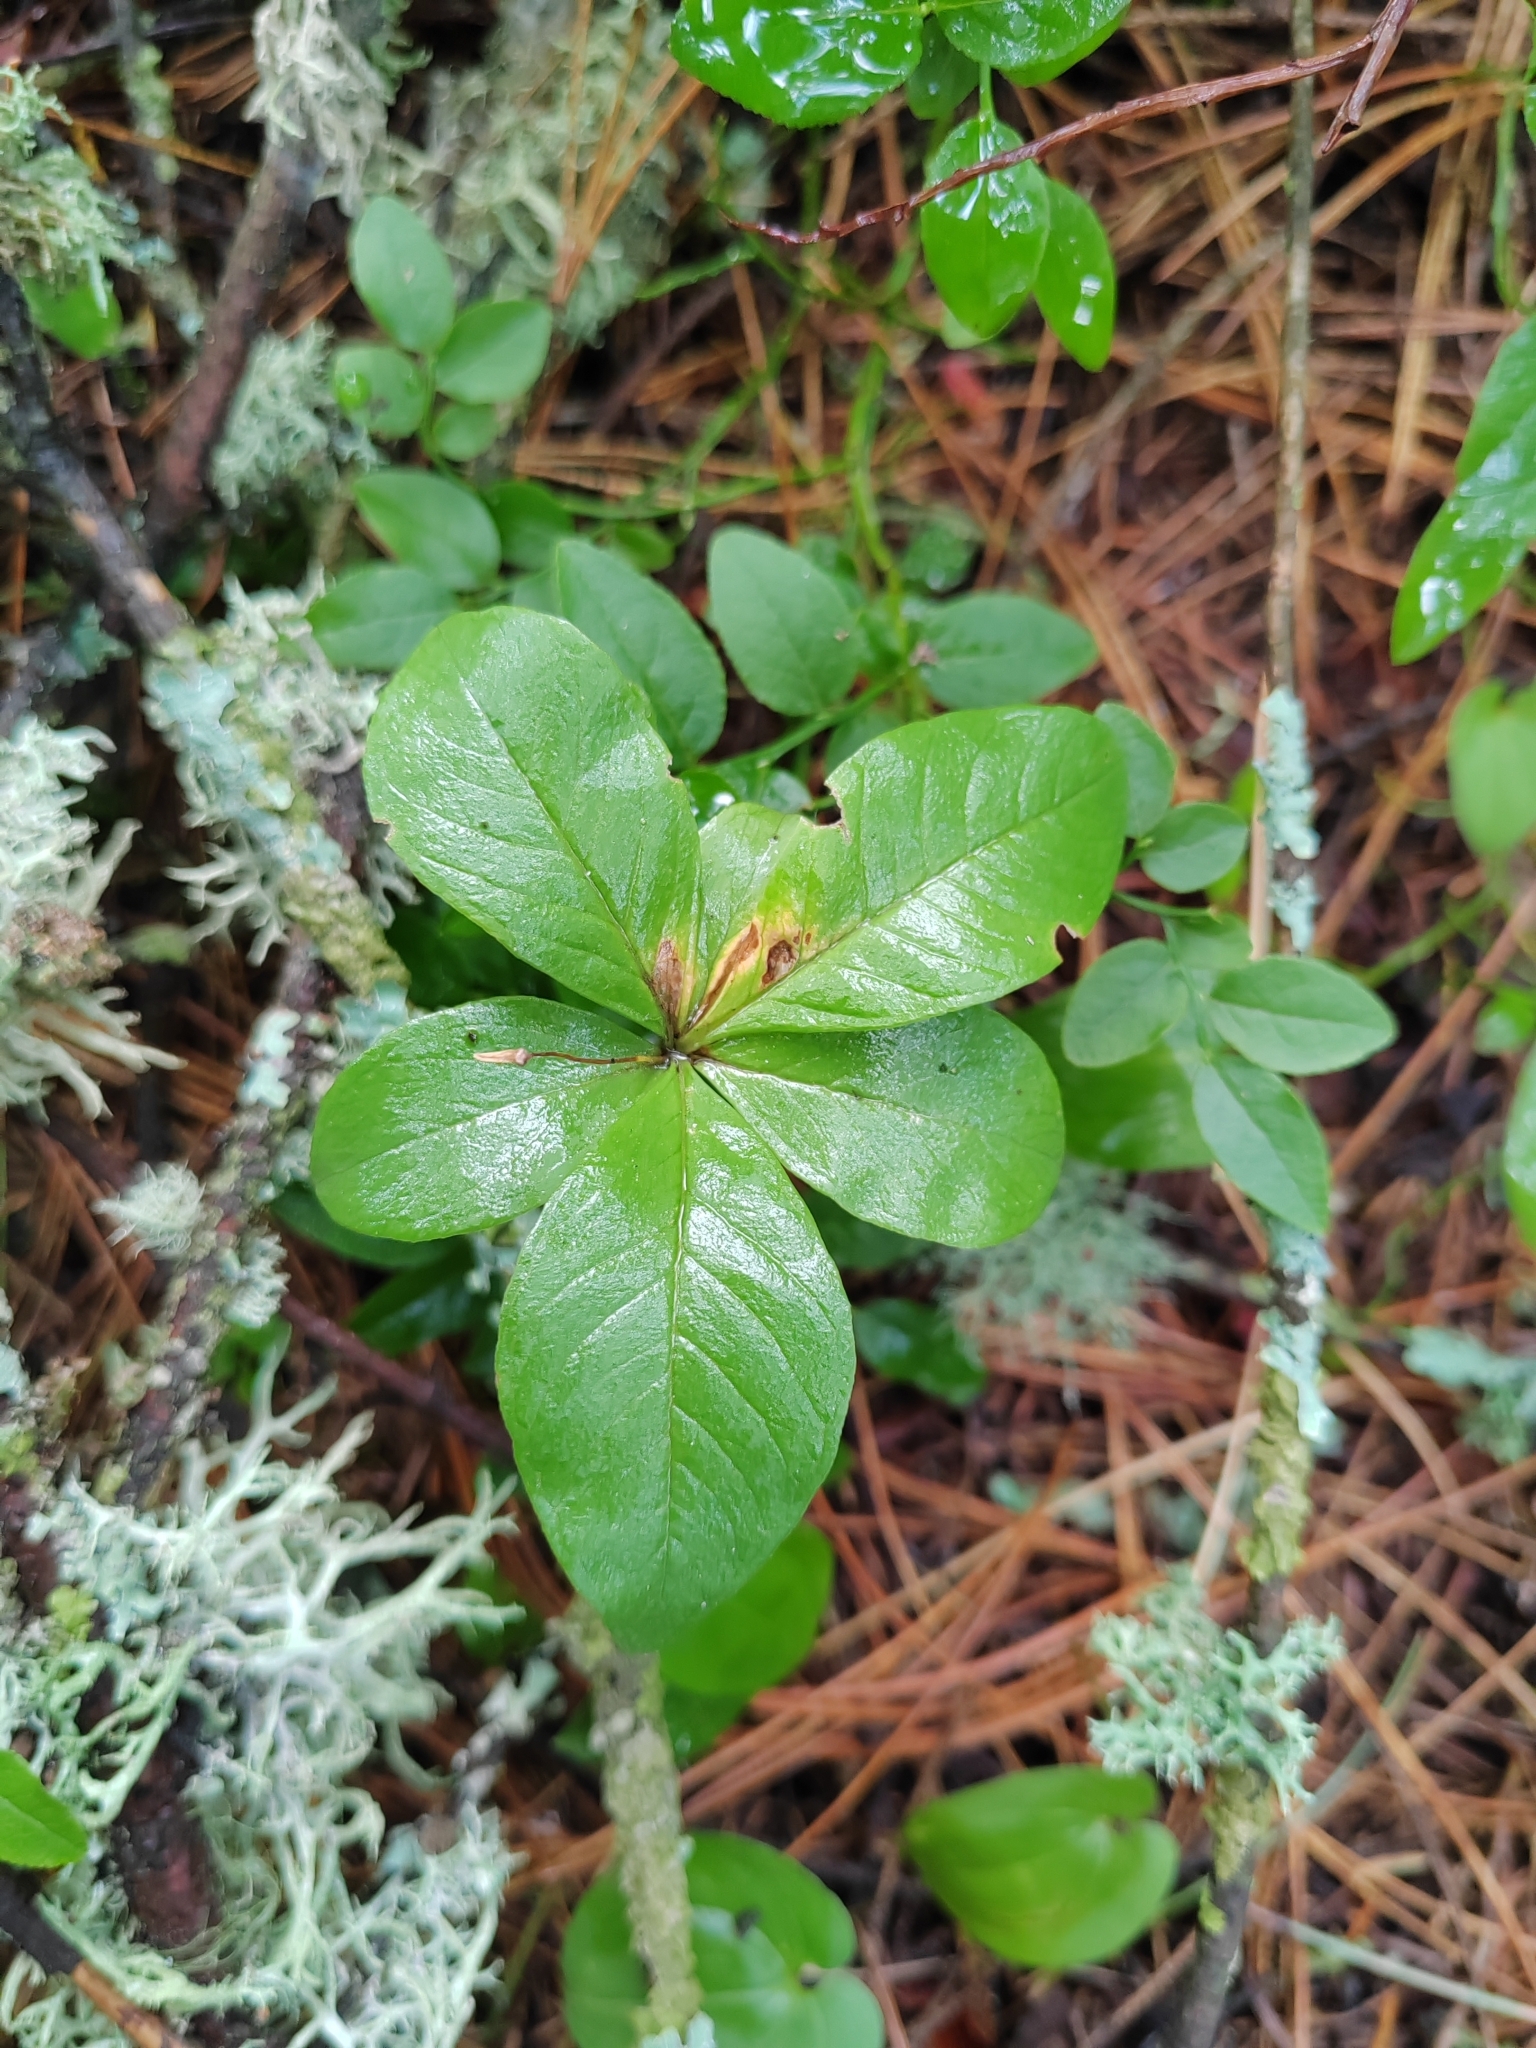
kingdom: Plantae
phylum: Tracheophyta
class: Magnoliopsida
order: Ericales
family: Primulaceae
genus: Lysimachia
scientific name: Lysimachia europaea
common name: Arctic starflower
